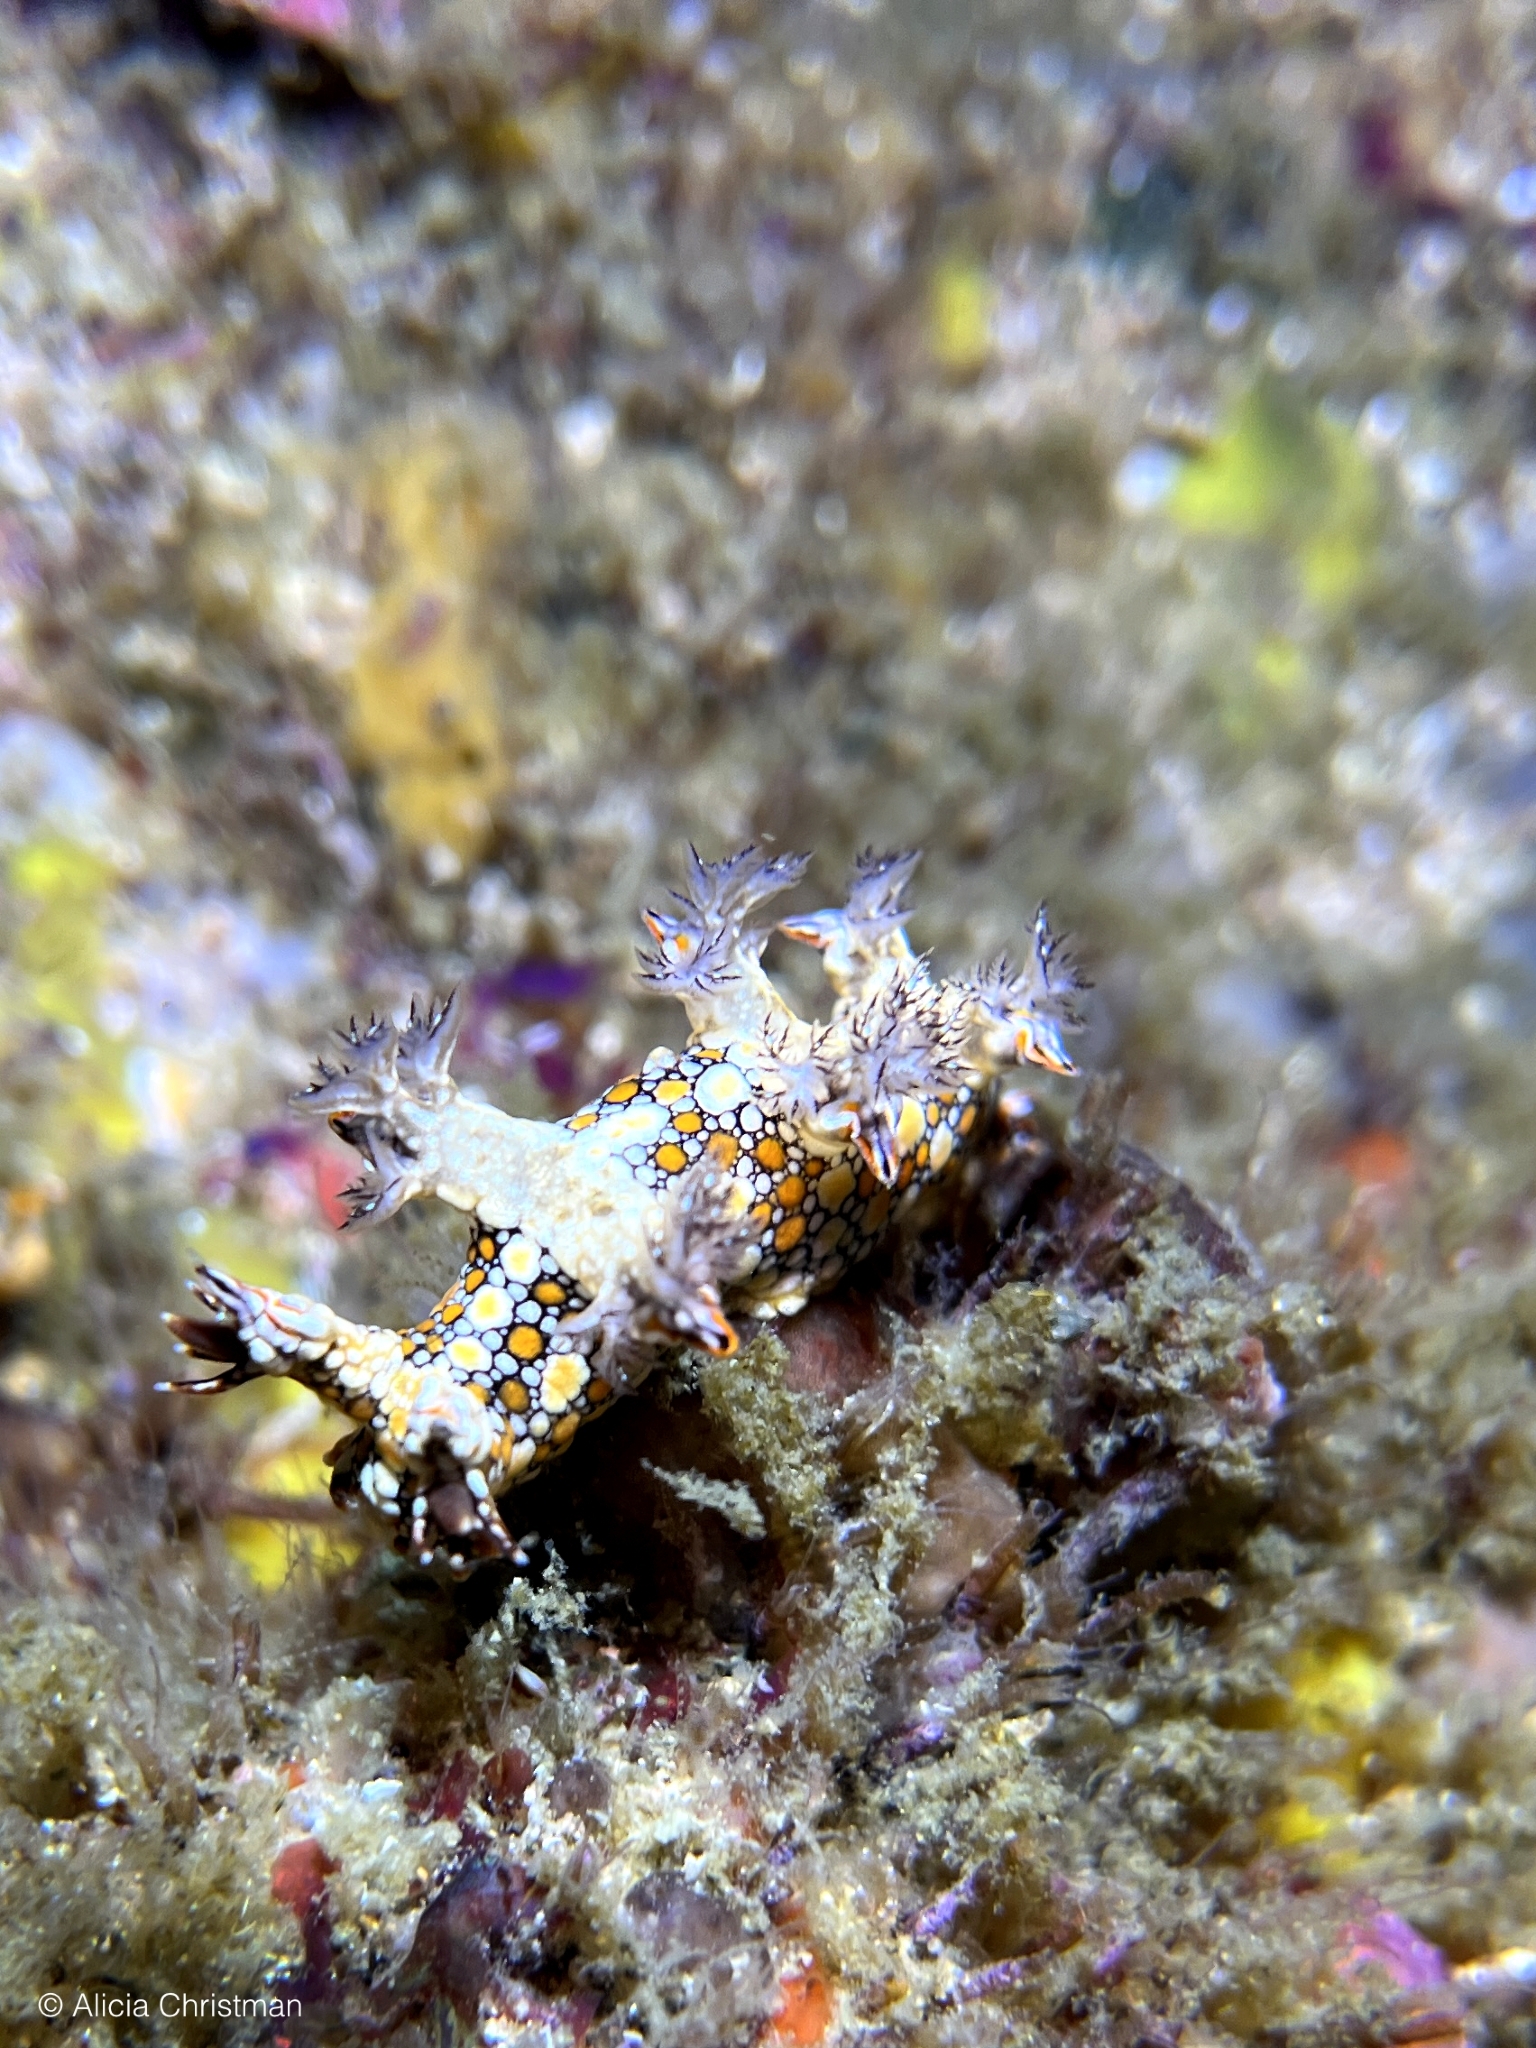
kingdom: Animalia
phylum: Mollusca
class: Gastropoda
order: Nudibranchia
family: Bornellidae
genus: Bornella
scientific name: Bornella anguilla
